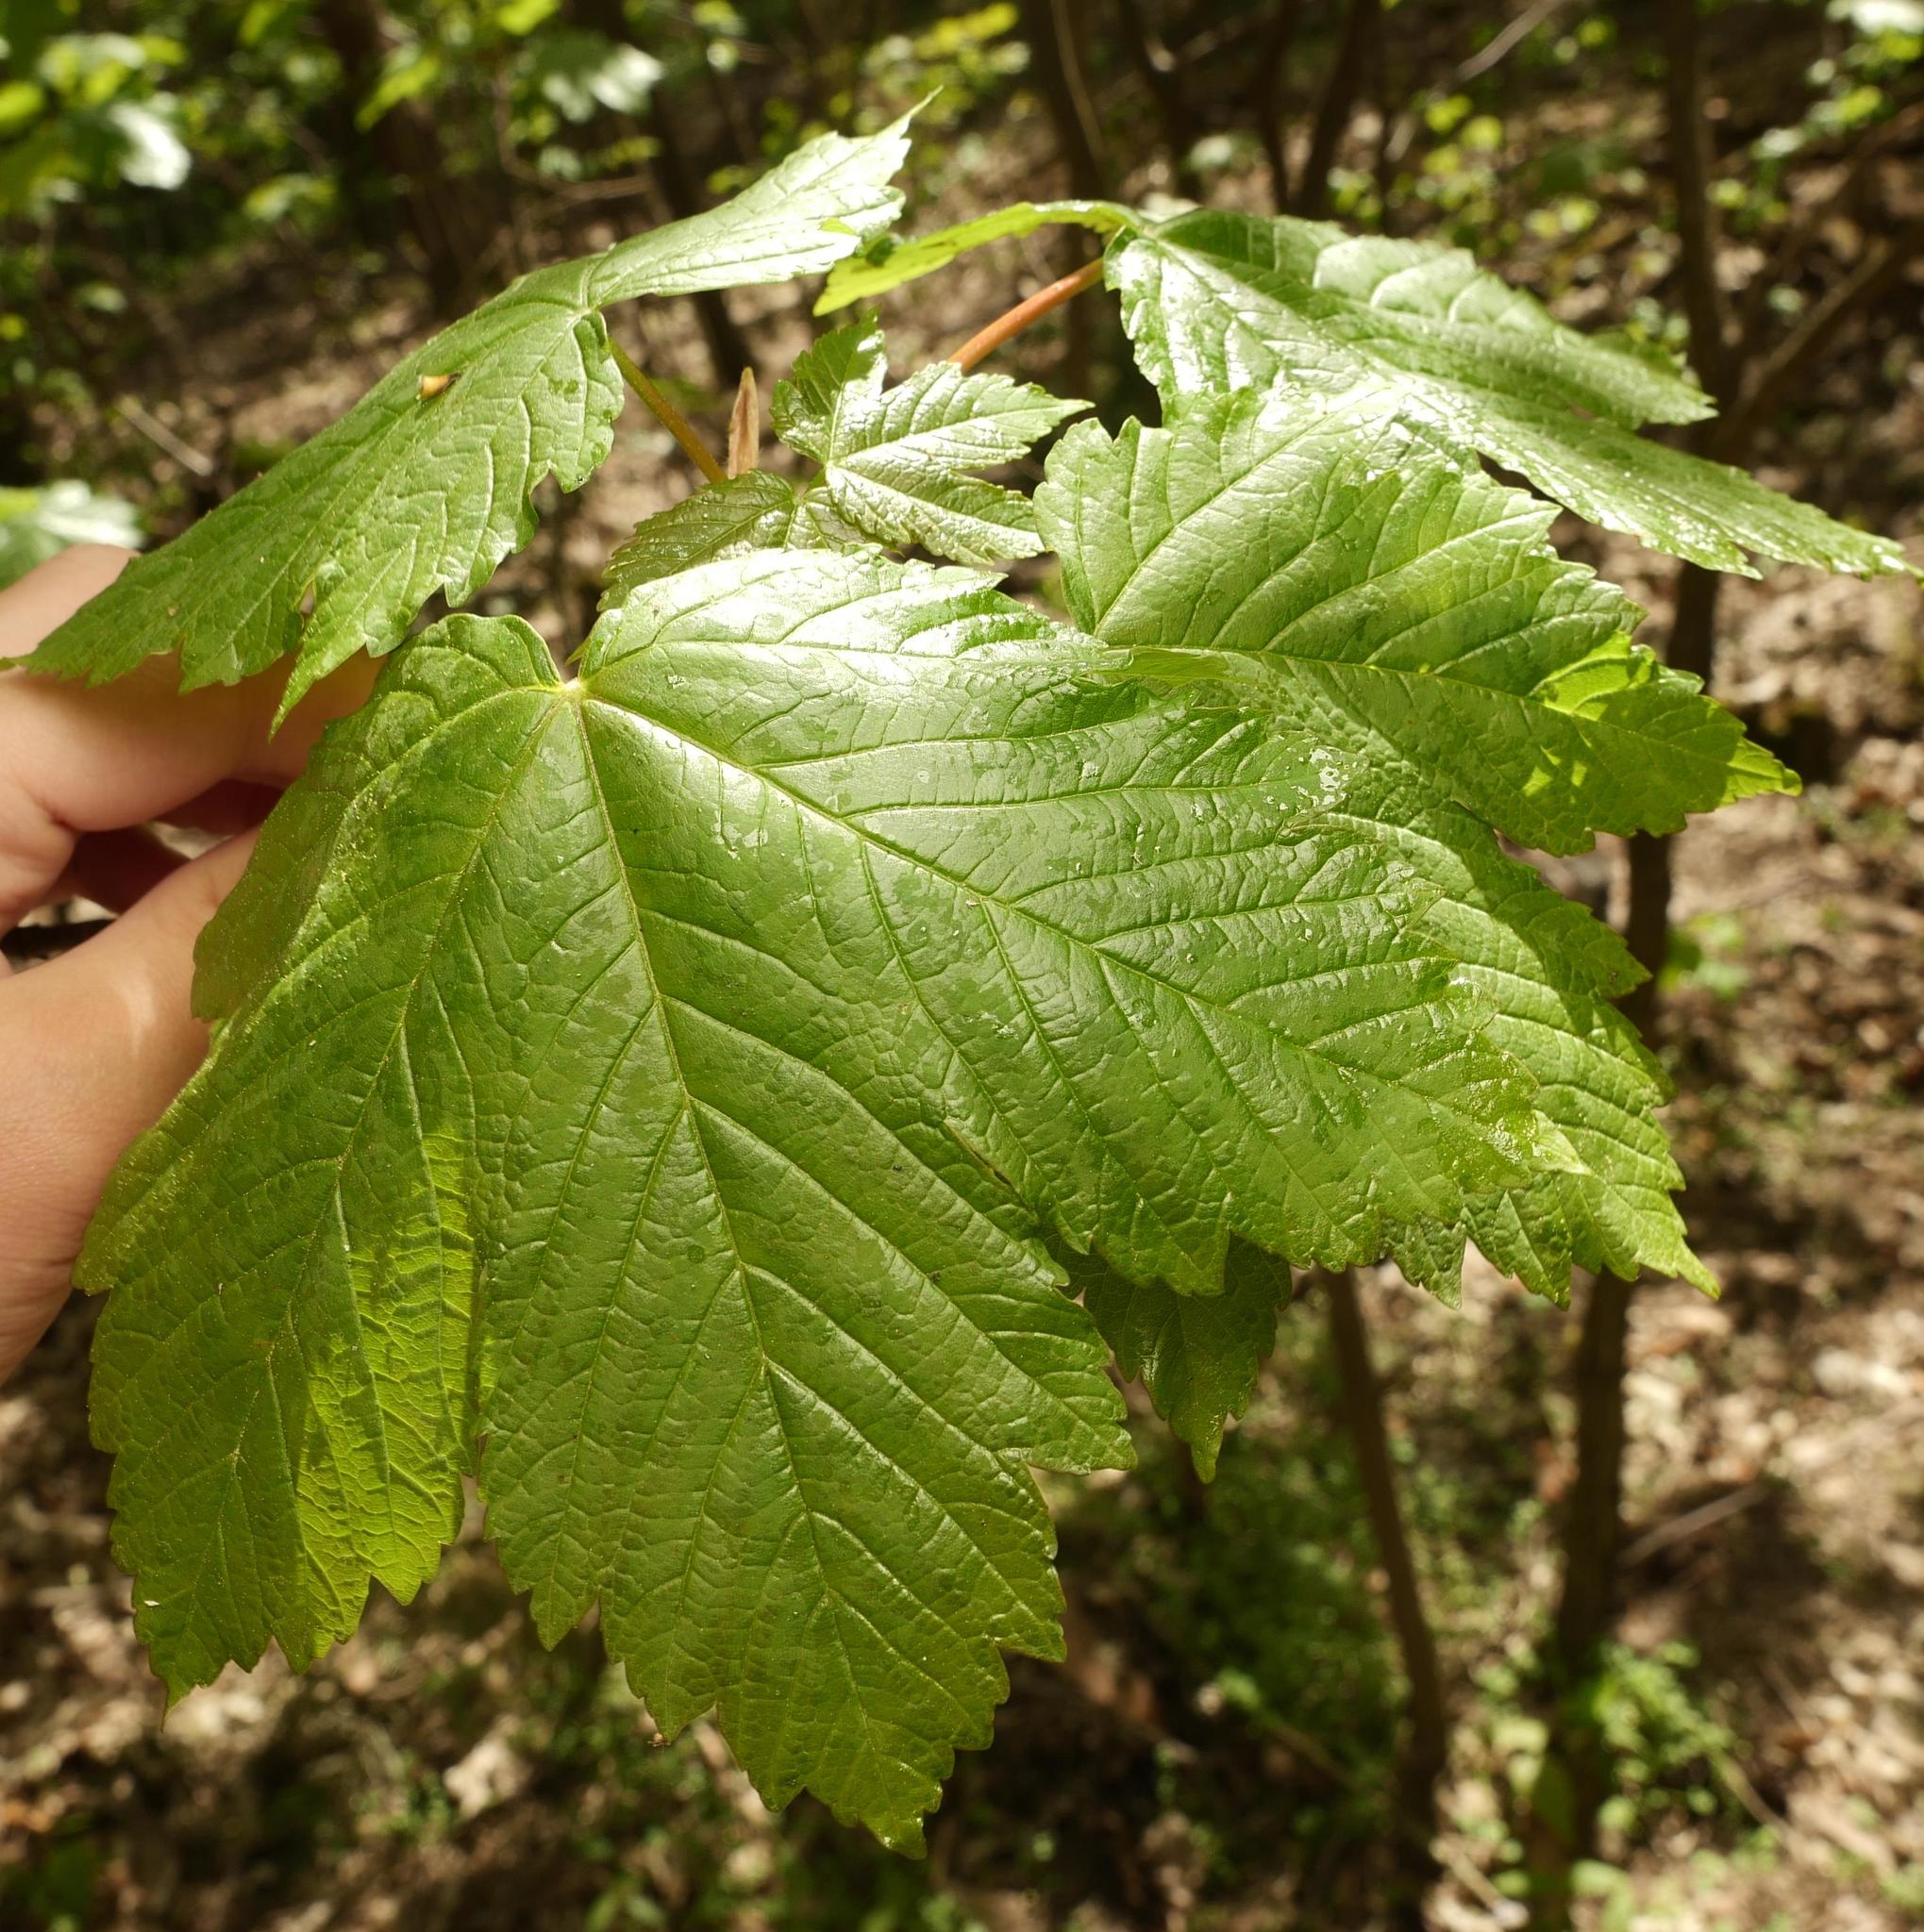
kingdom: Plantae
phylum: Tracheophyta
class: Magnoliopsida
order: Sapindales
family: Sapindaceae
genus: Acer
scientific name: Acer pseudoplatanus
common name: Sycamore
